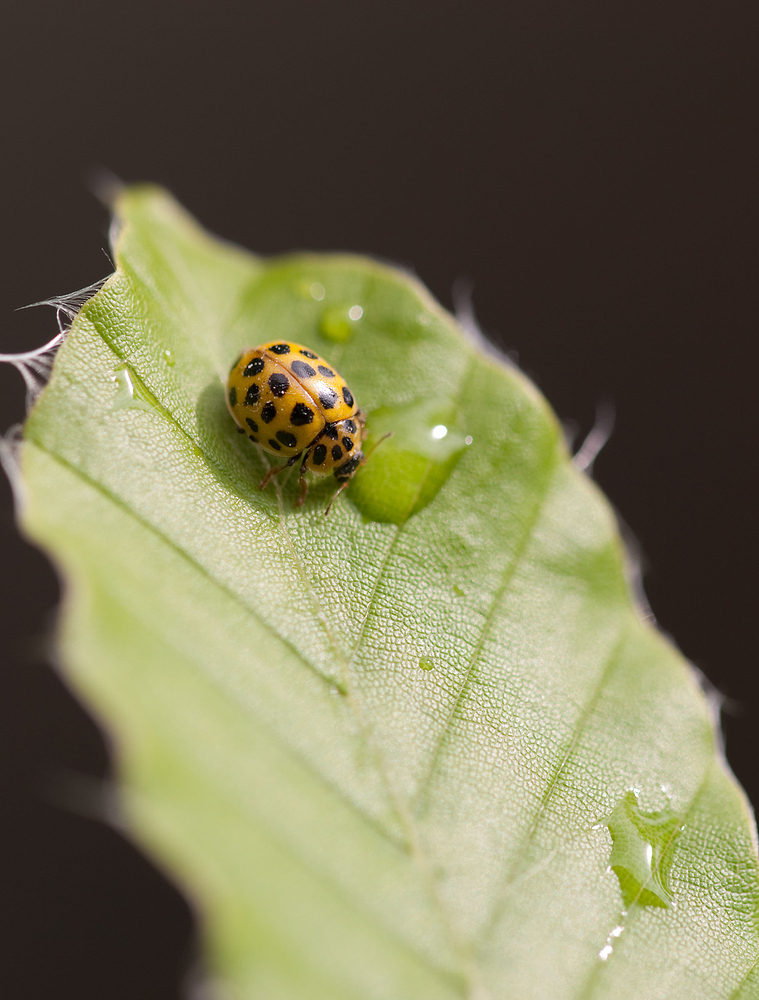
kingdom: Animalia
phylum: Arthropoda
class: Insecta
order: Coleoptera
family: Coccinellidae
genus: Psyllobora
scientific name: Psyllobora vigintiduopunctata
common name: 22-spot ladybird
